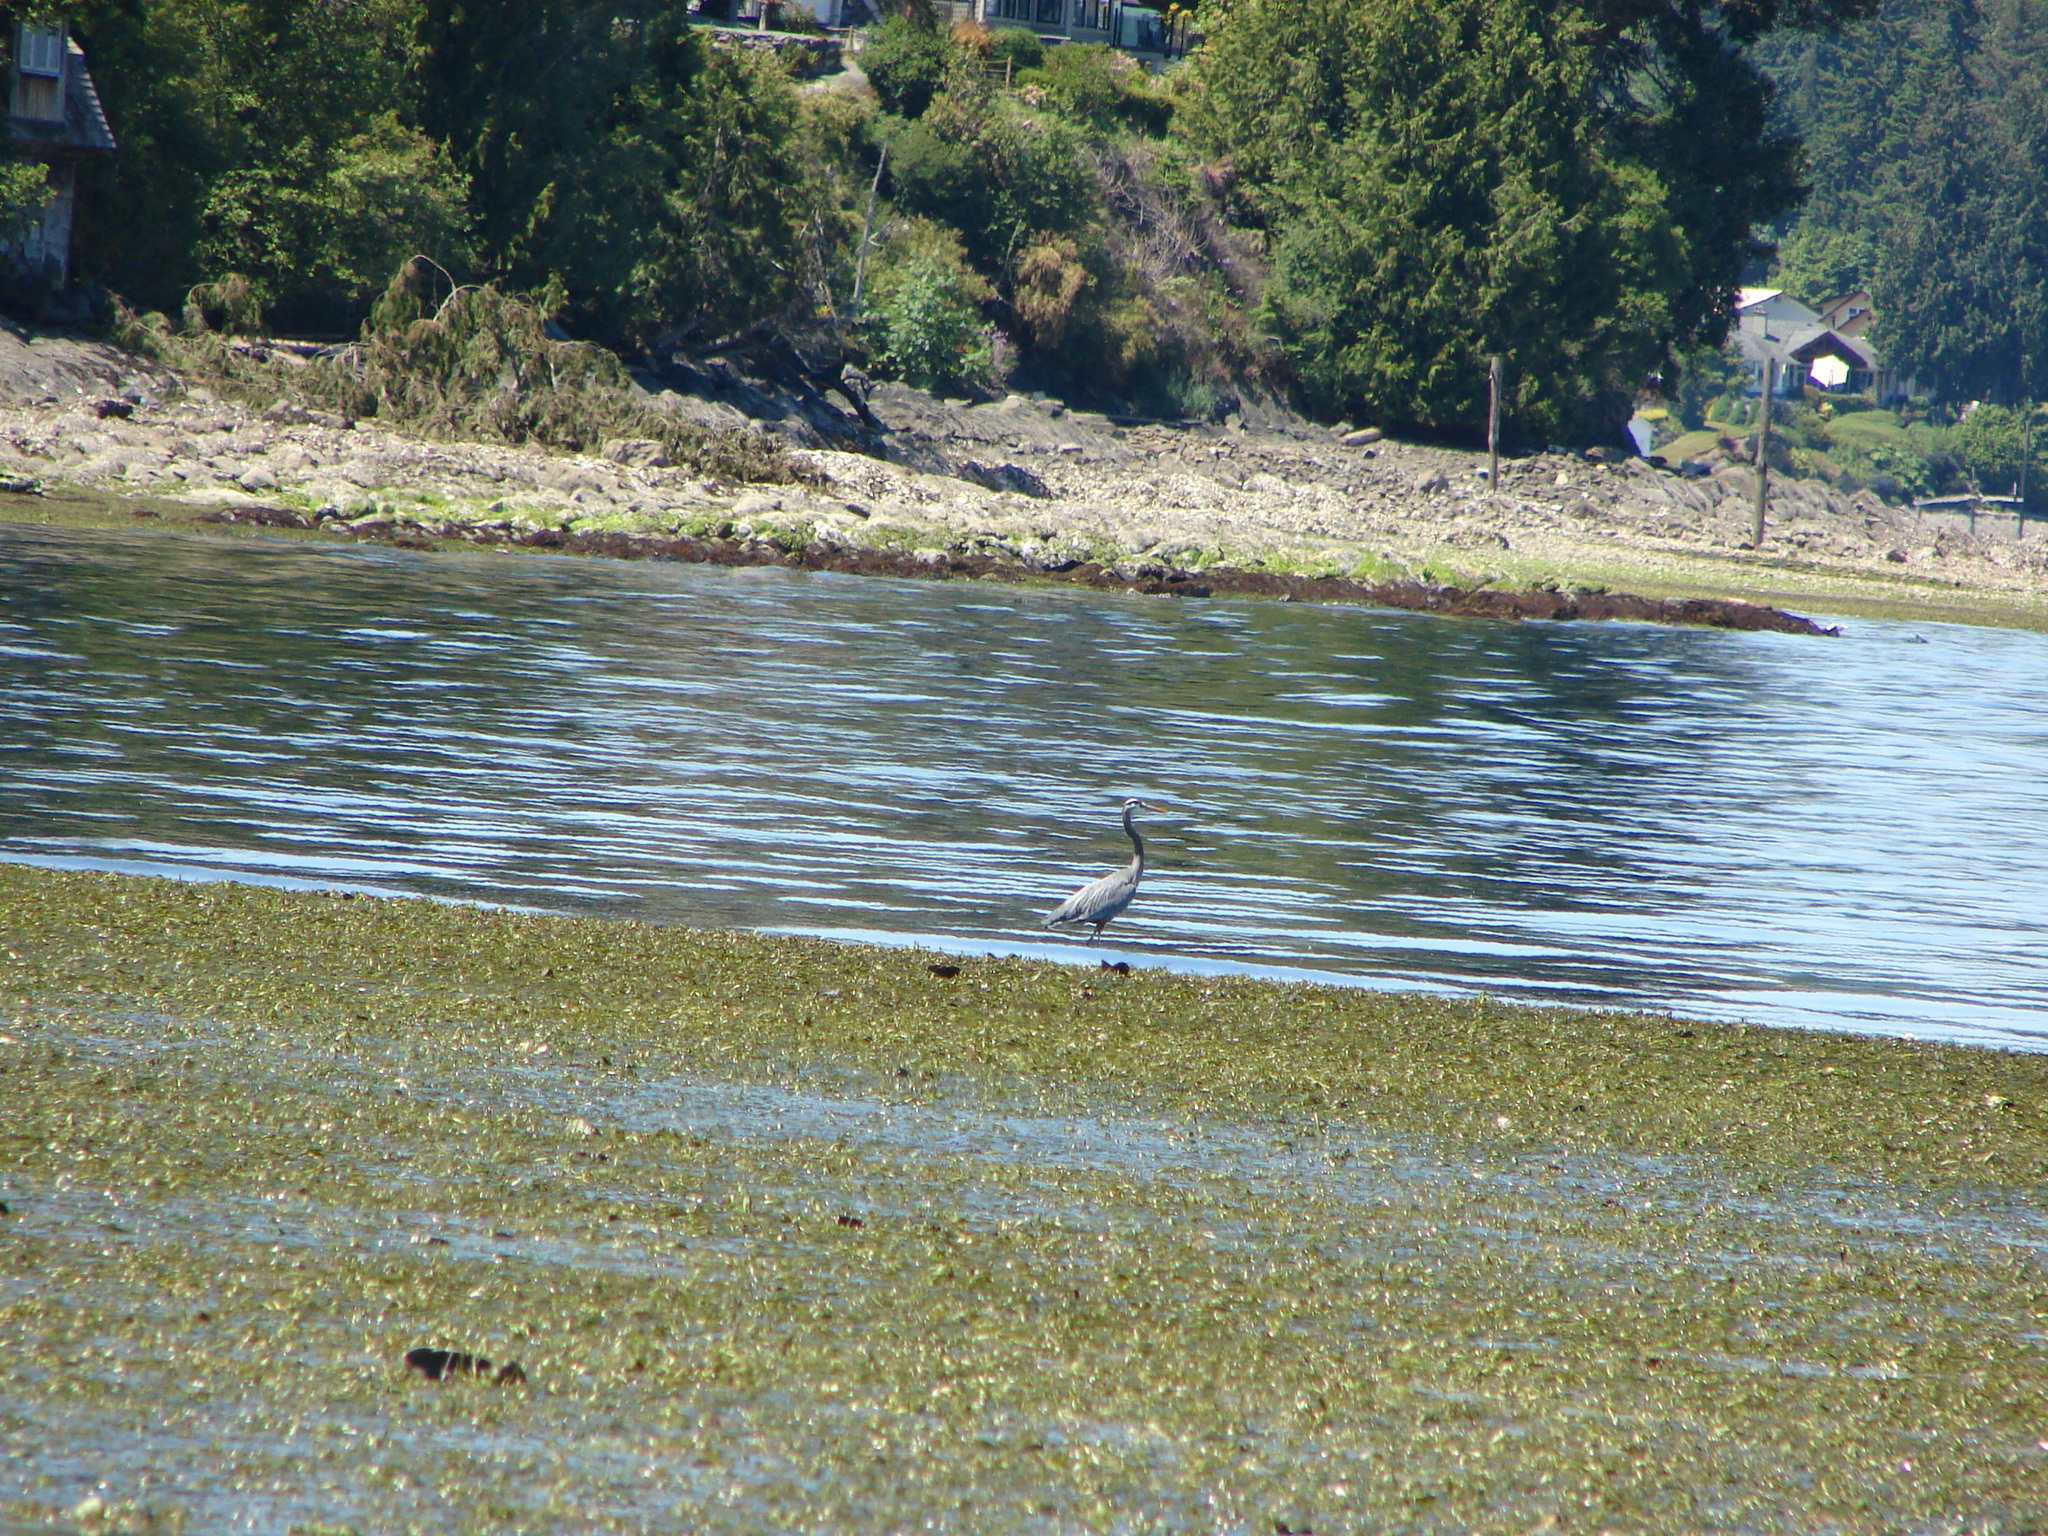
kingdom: Animalia
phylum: Chordata
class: Aves
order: Pelecaniformes
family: Ardeidae
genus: Ardea
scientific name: Ardea herodias
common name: Great blue heron
